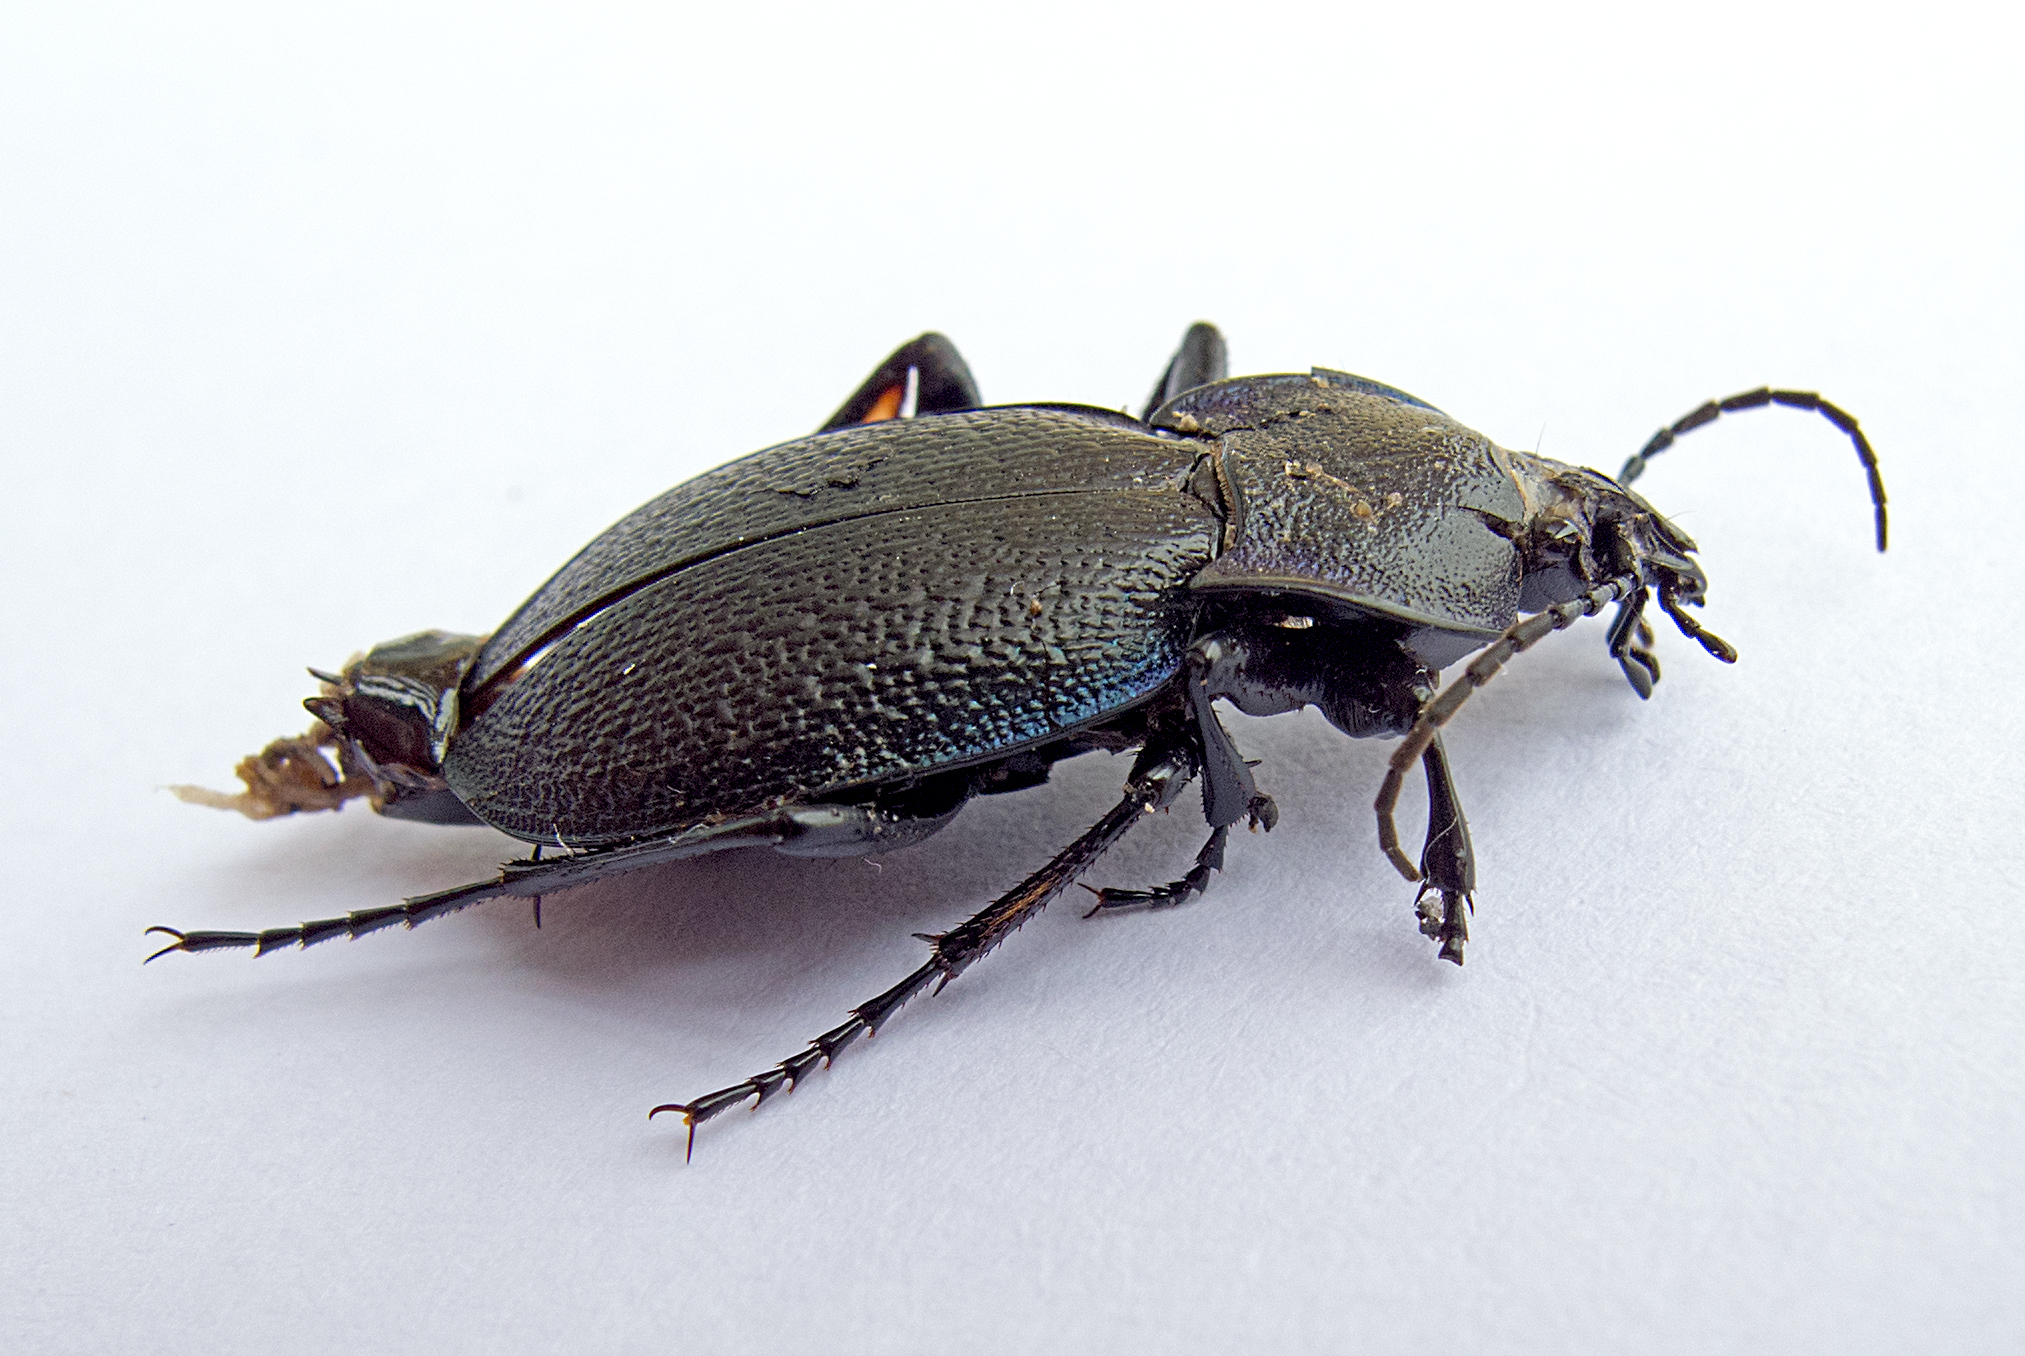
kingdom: Animalia
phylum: Arthropoda
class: Insecta
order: Coleoptera
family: Carabidae
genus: Carabus
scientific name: Carabus wiedemanni
